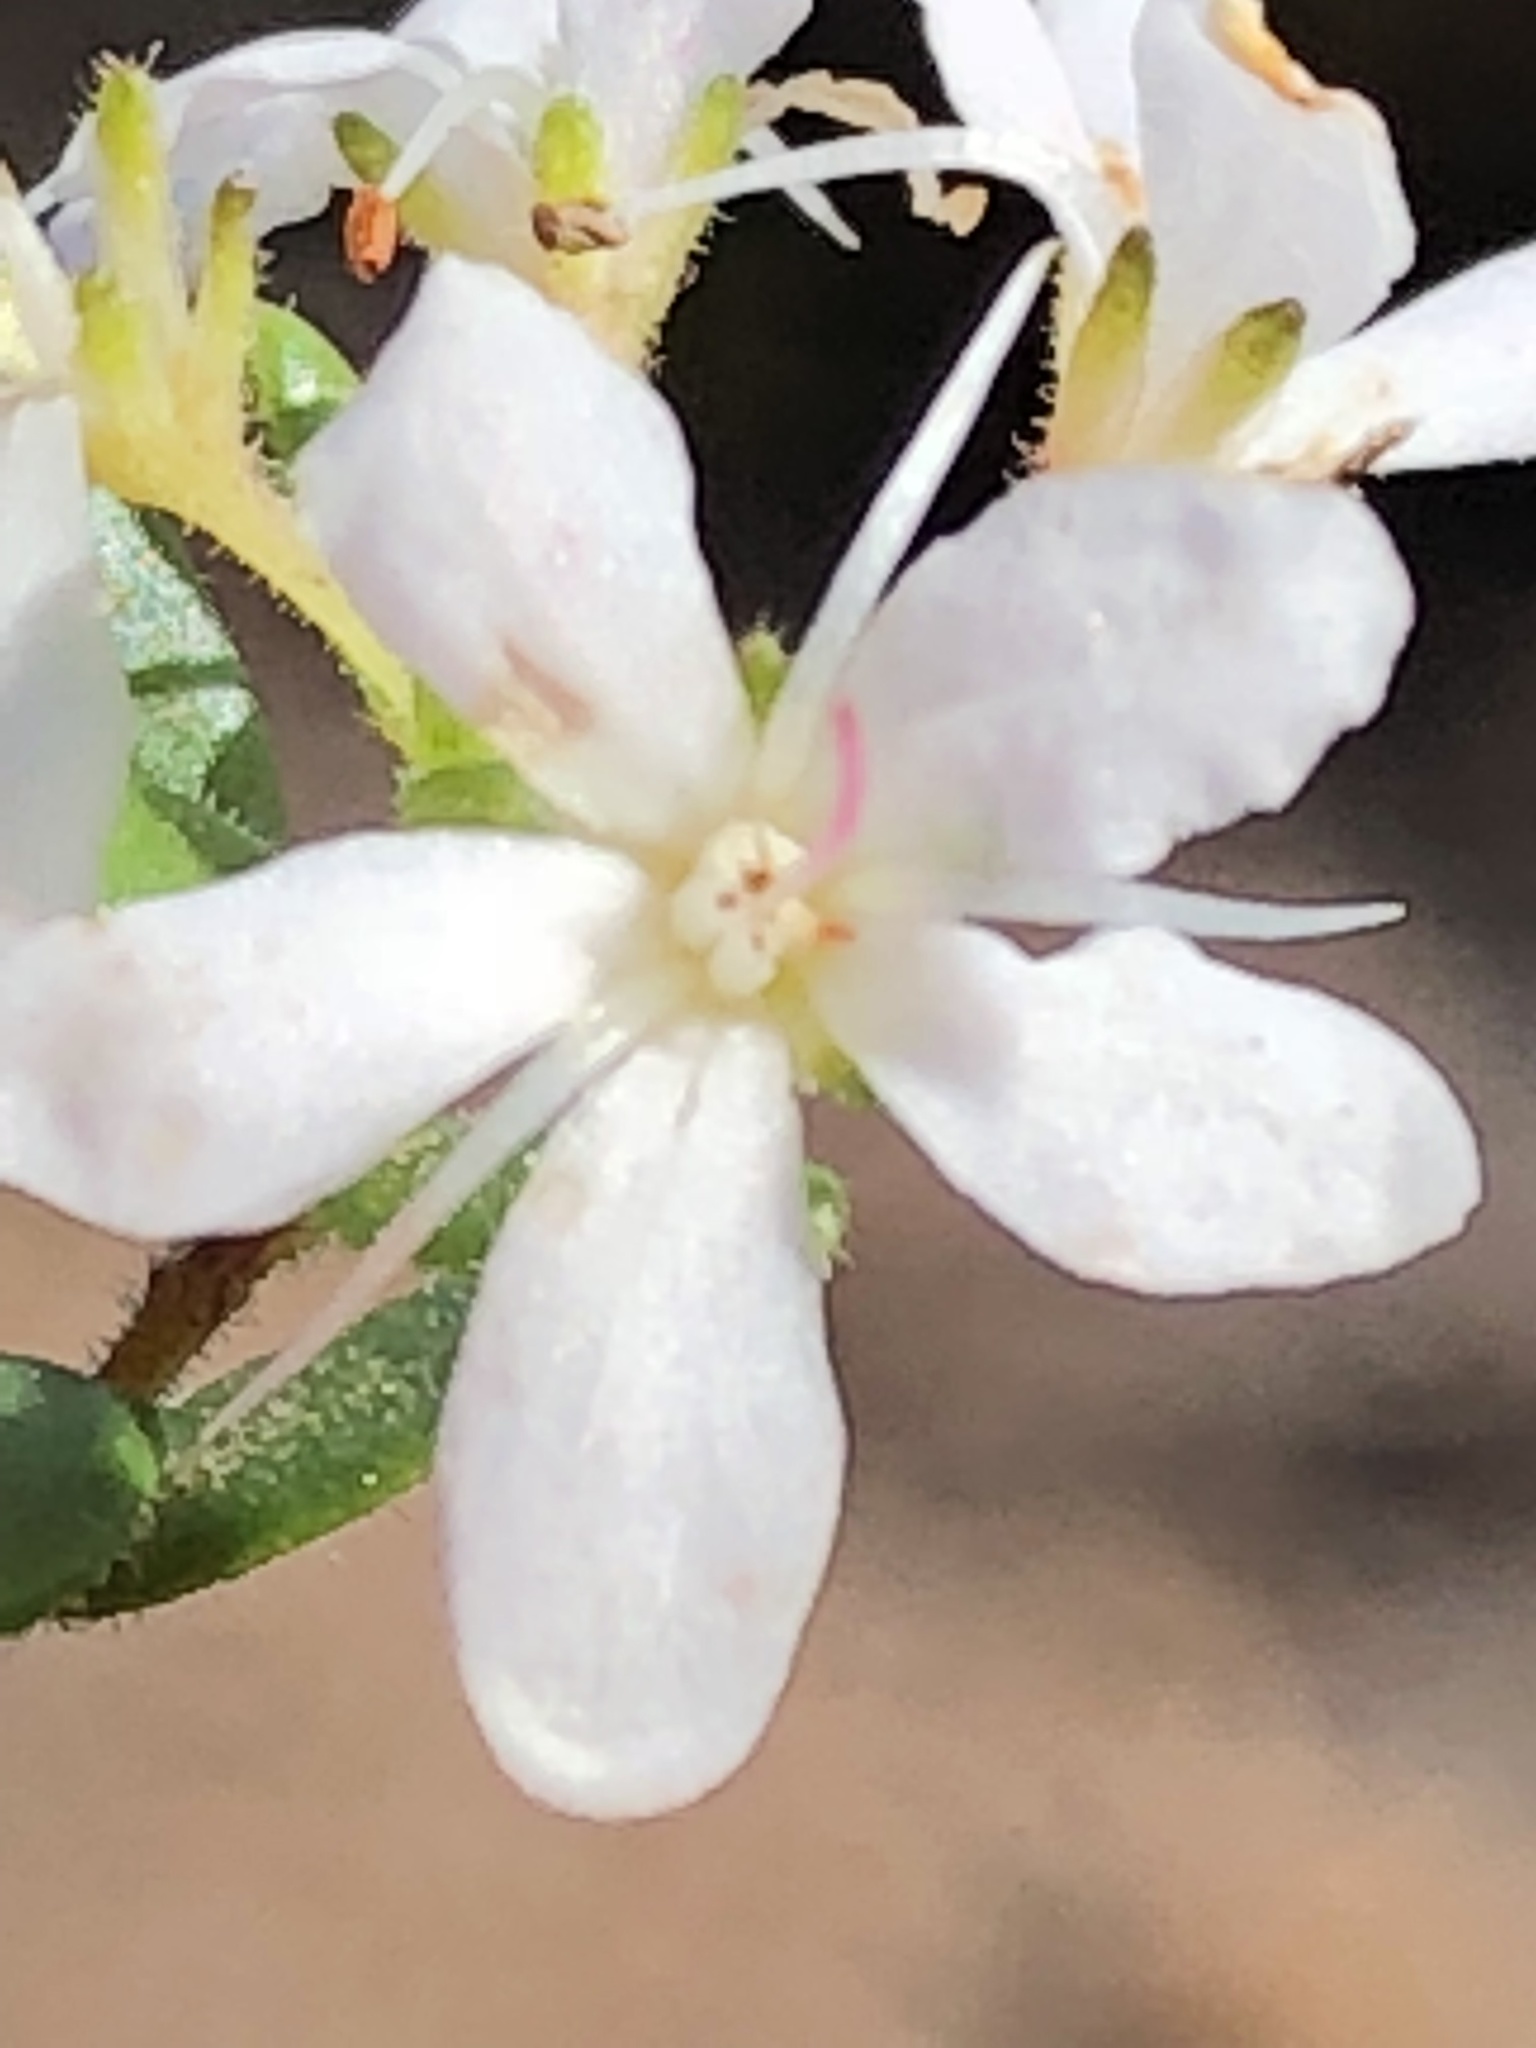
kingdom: Plantae
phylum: Tracheophyta
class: Magnoliopsida
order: Sapindales
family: Rutaceae
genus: Agathosma
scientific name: Agathosma planifolia
